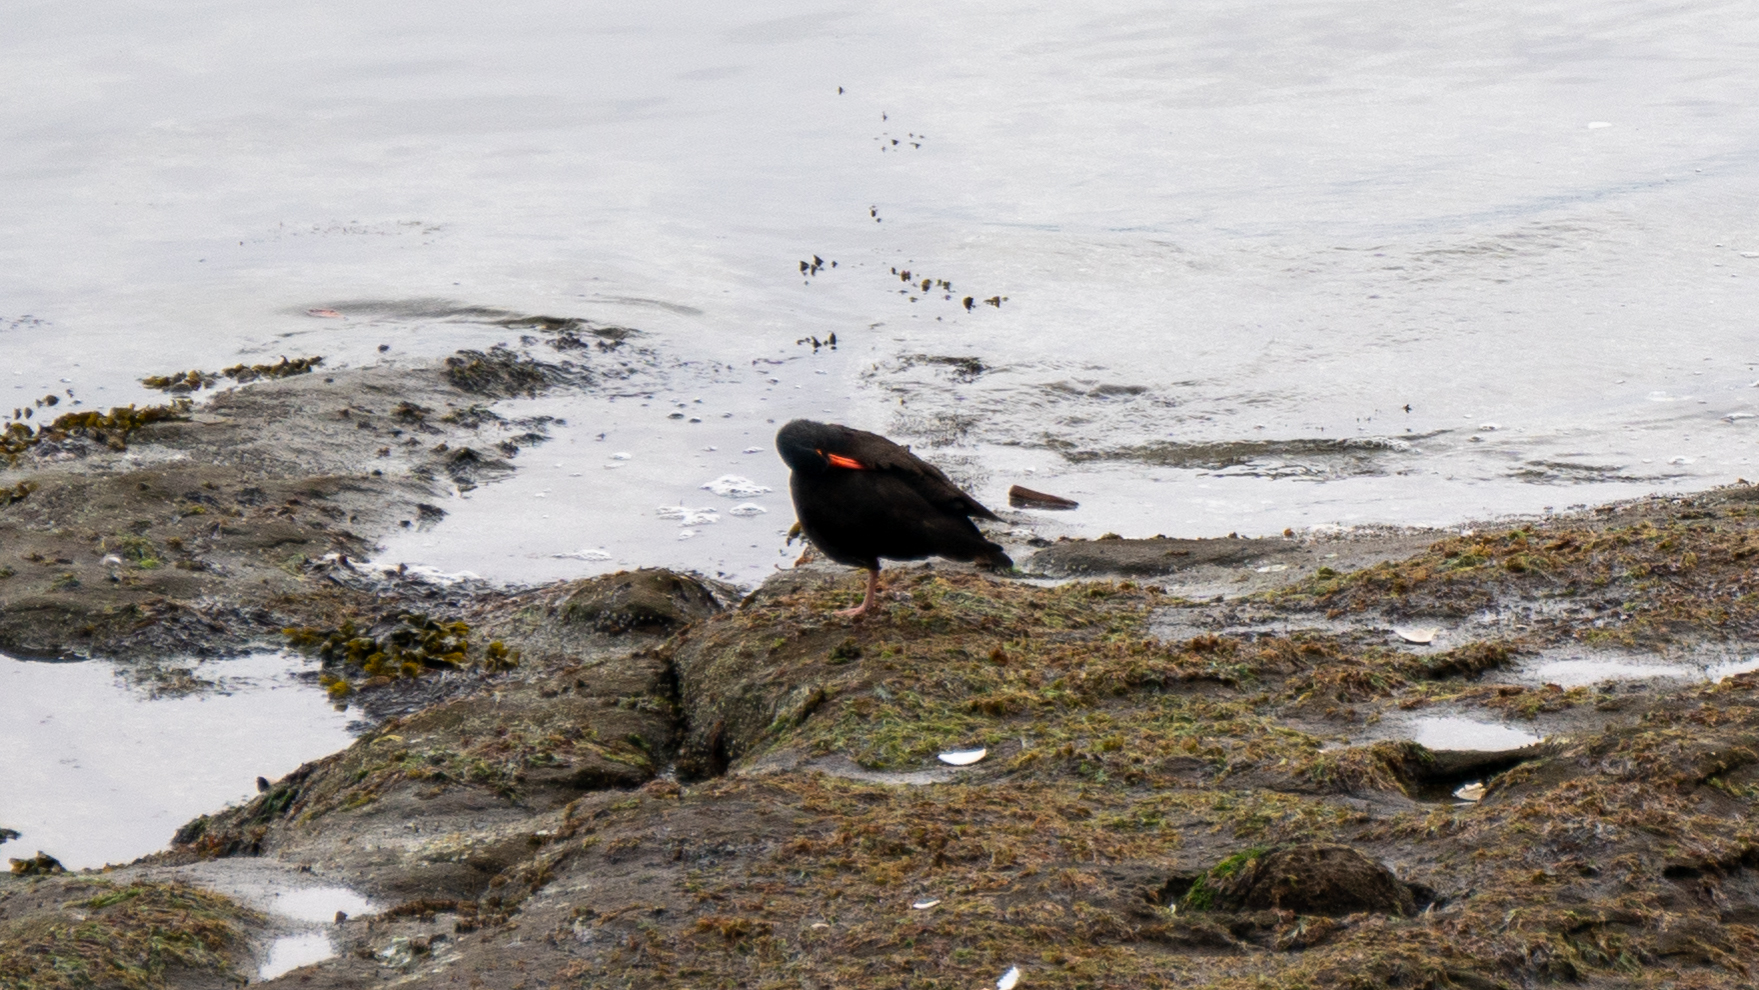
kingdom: Animalia
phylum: Chordata
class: Aves
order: Charadriiformes
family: Haematopodidae
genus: Haematopus
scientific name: Haematopus bachmani
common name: Black oystercatcher
